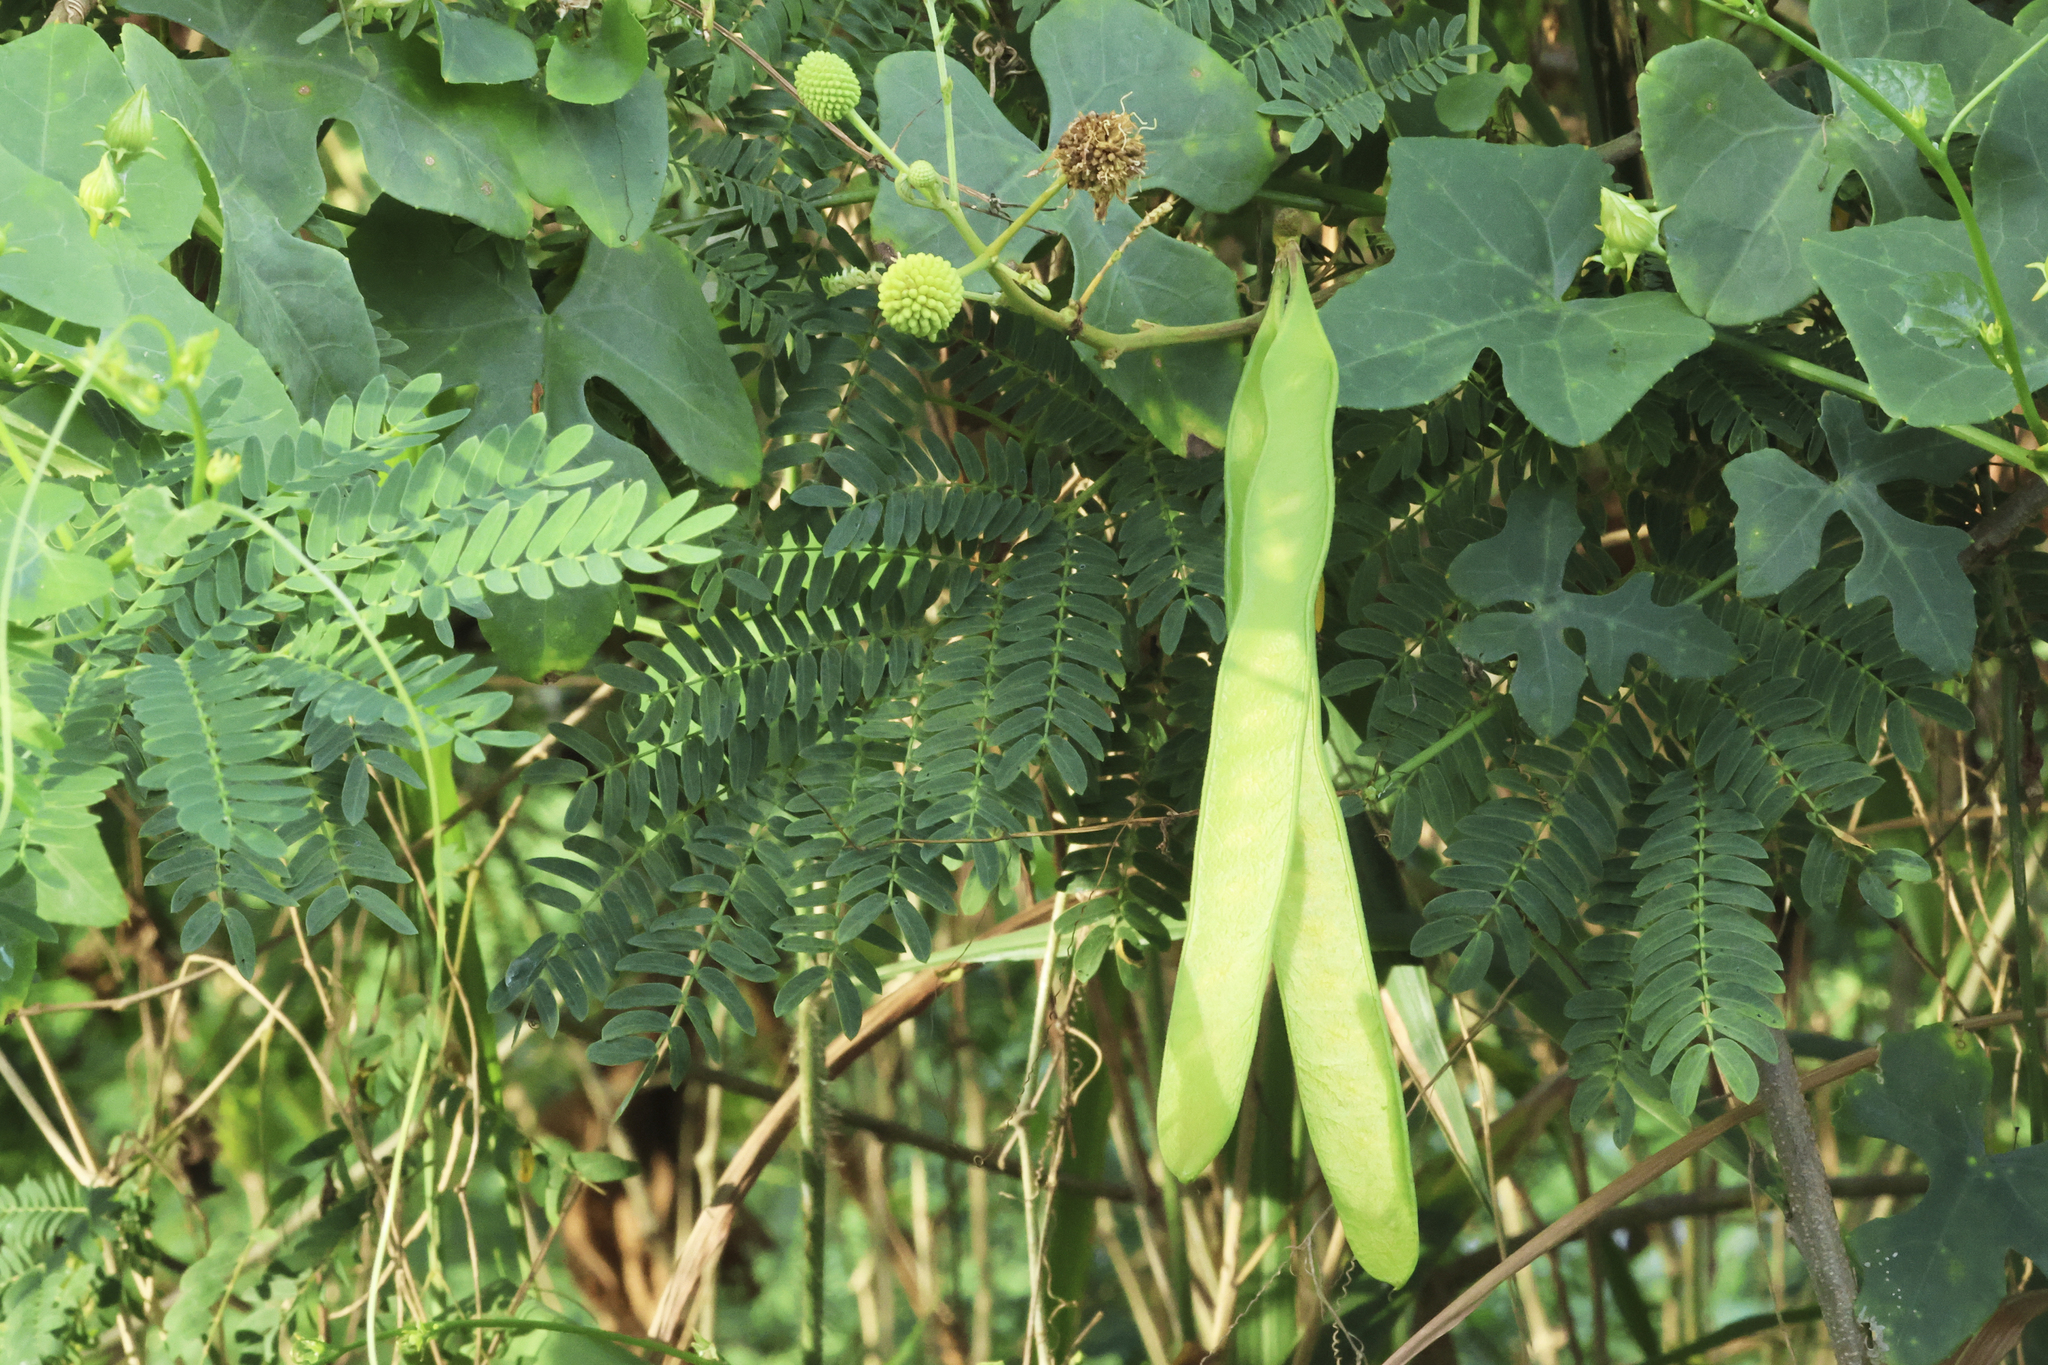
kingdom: Plantae
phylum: Tracheophyta
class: Magnoliopsida
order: Fabales
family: Fabaceae
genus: Leucaena
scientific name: Leucaena leucocephala
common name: White leadtree
